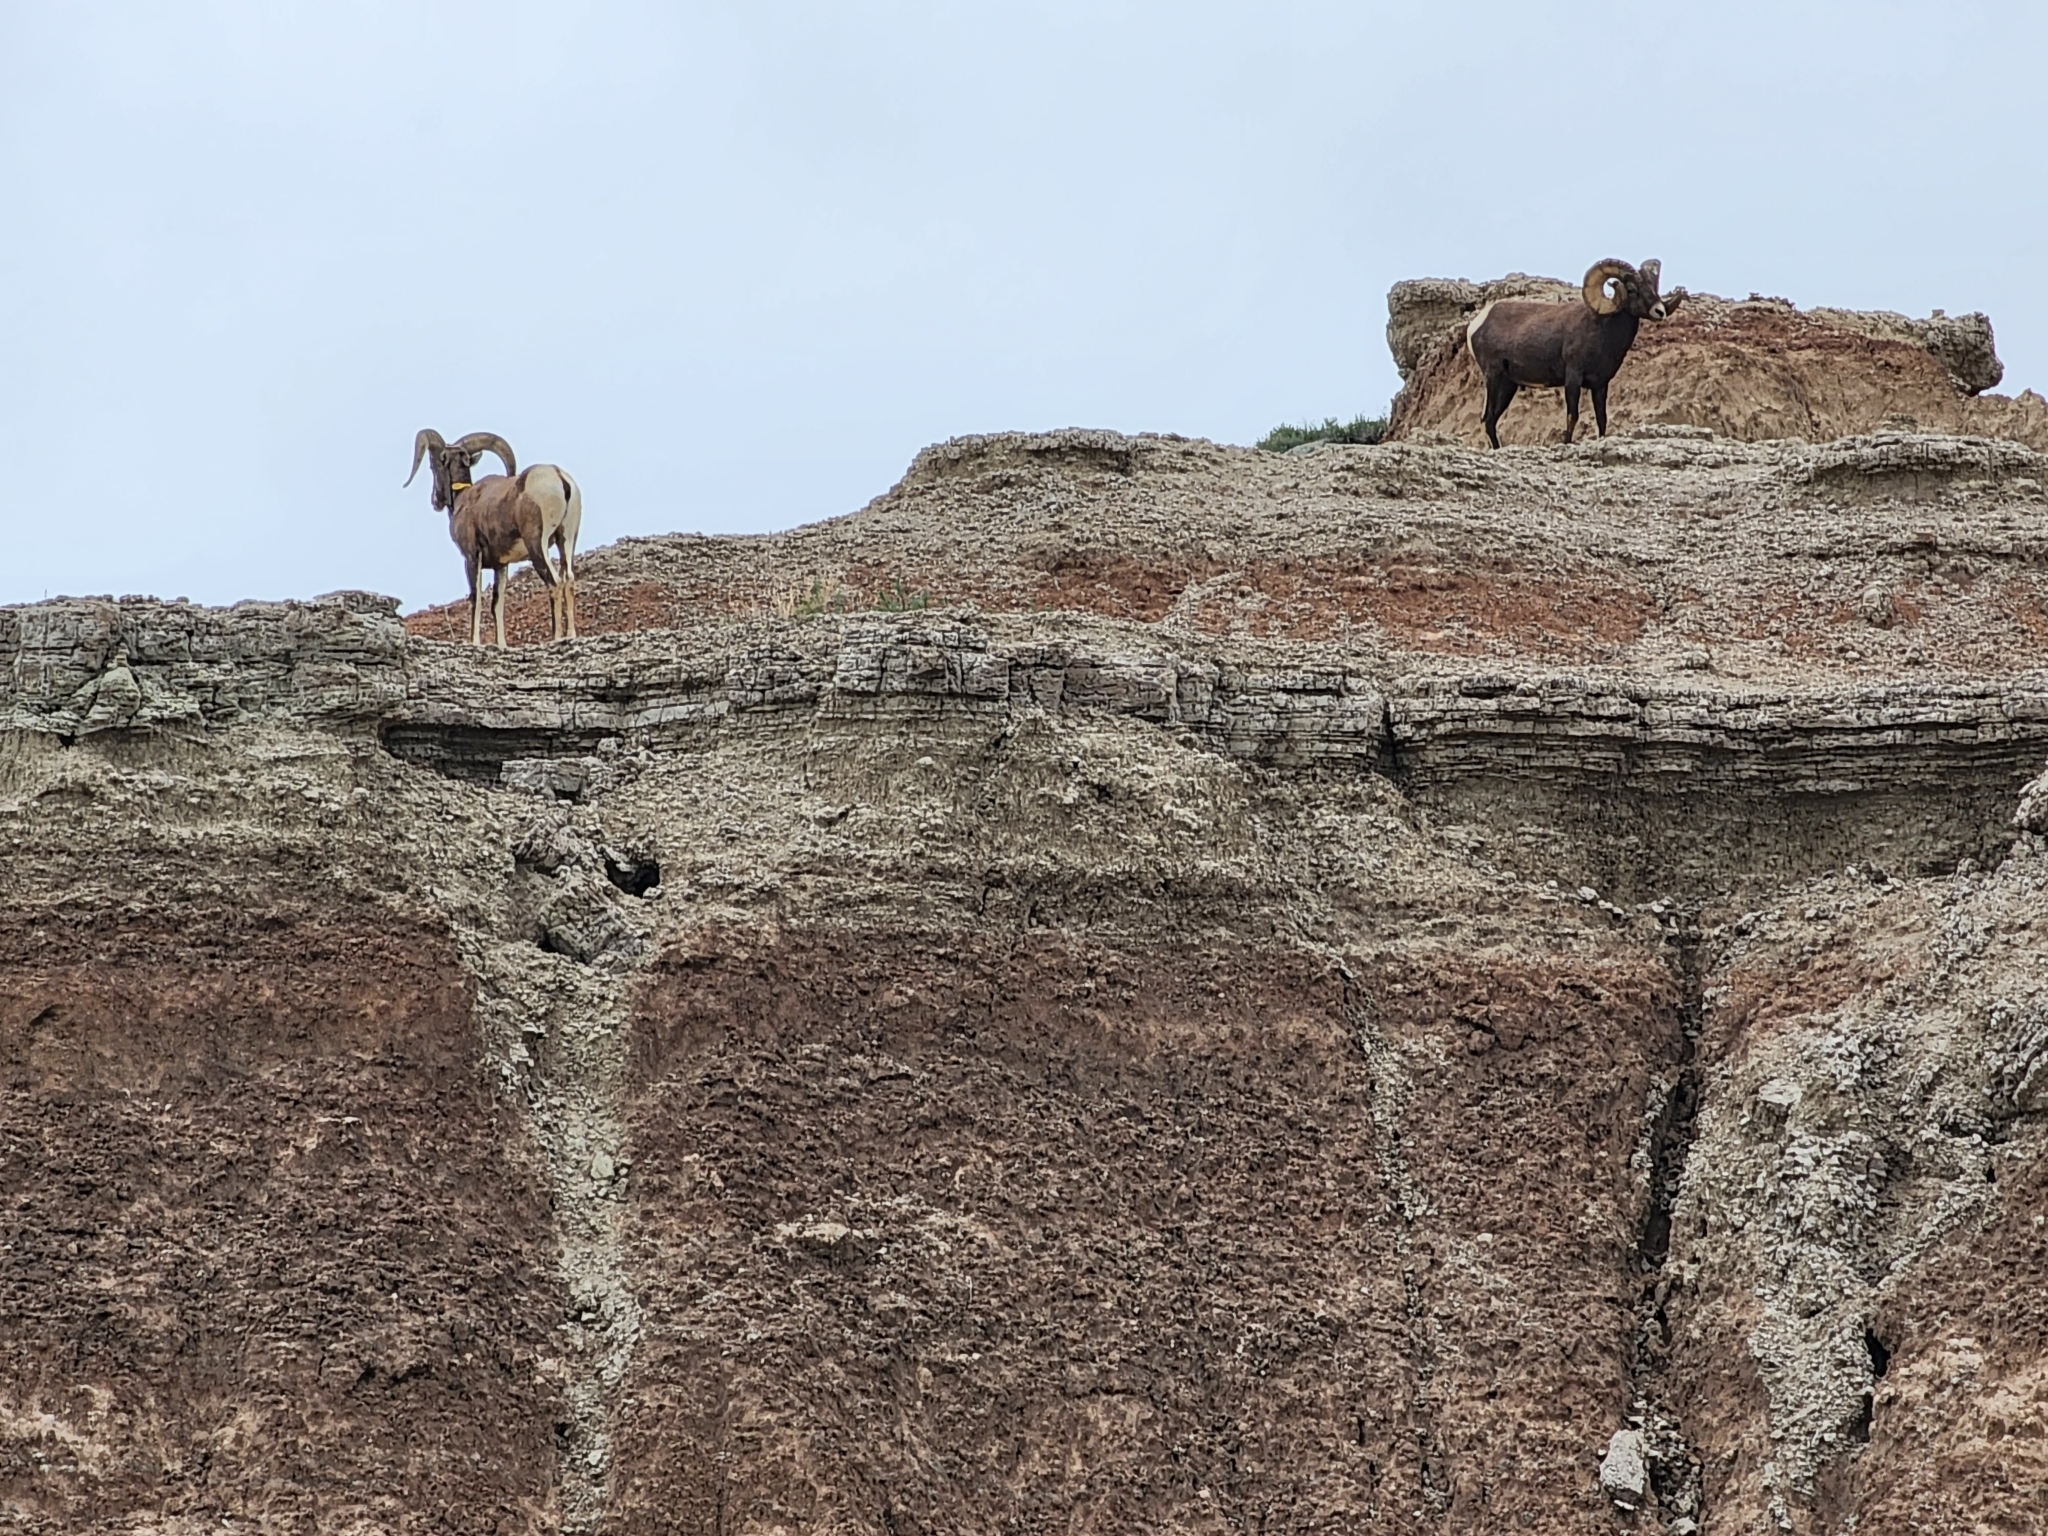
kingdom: Animalia
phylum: Chordata
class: Mammalia
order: Artiodactyla
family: Bovidae
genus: Ovis
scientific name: Ovis canadensis
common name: Bighorn sheep
